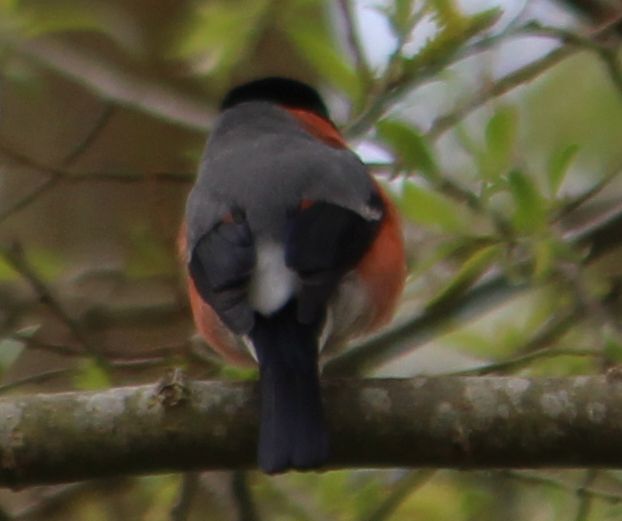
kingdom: Animalia
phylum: Chordata
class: Aves
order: Passeriformes
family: Fringillidae
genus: Pyrrhula
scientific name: Pyrrhula pyrrhula
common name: Eurasian bullfinch
